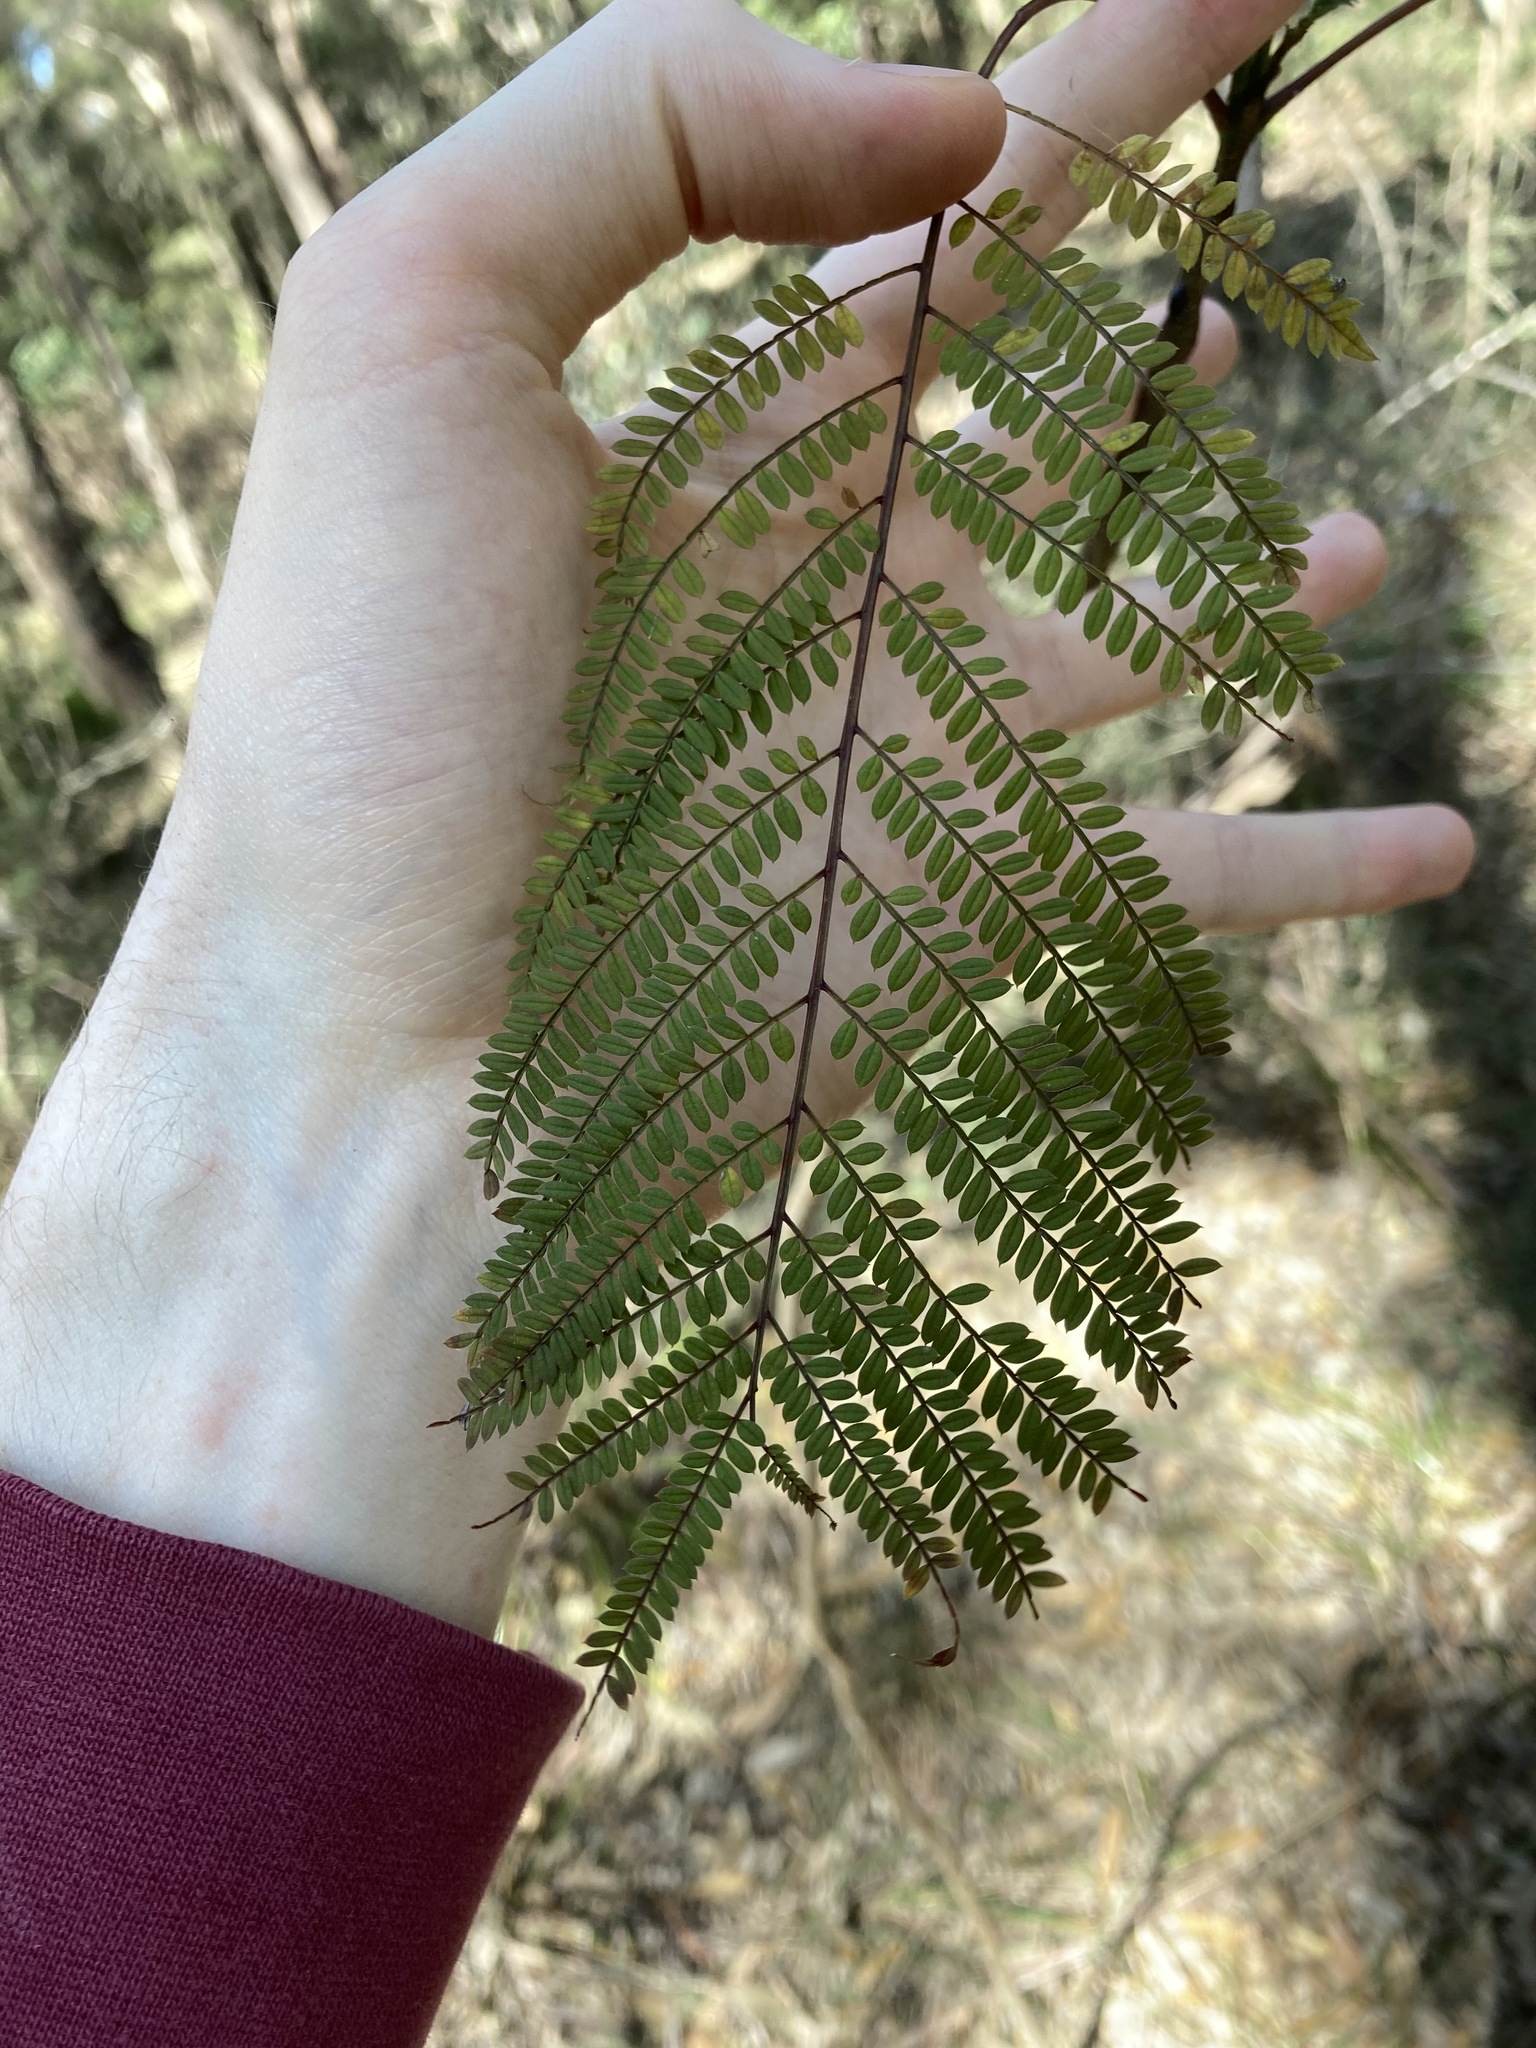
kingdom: Plantae
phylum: Tracheophyta
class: Magnoliopsida
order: Lamiales
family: Bignoniaceae
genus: Jacaranda
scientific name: Jacaranda mimosifolia
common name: Black poui
